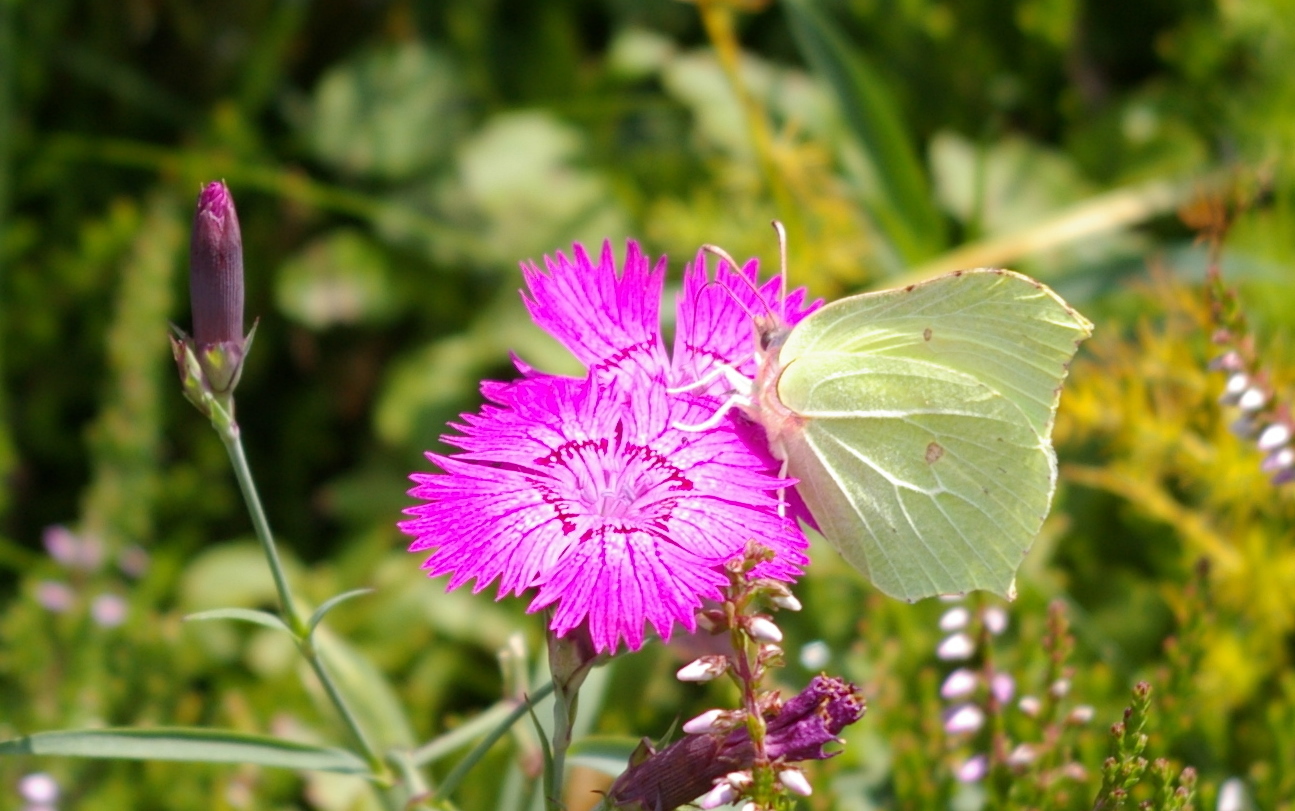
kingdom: Animalia
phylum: Arthropoda
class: Insecta
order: Lepidoptera
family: Pieridae
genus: Gonepteryx
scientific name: Gonepteryx rhamni
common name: Brimstone
